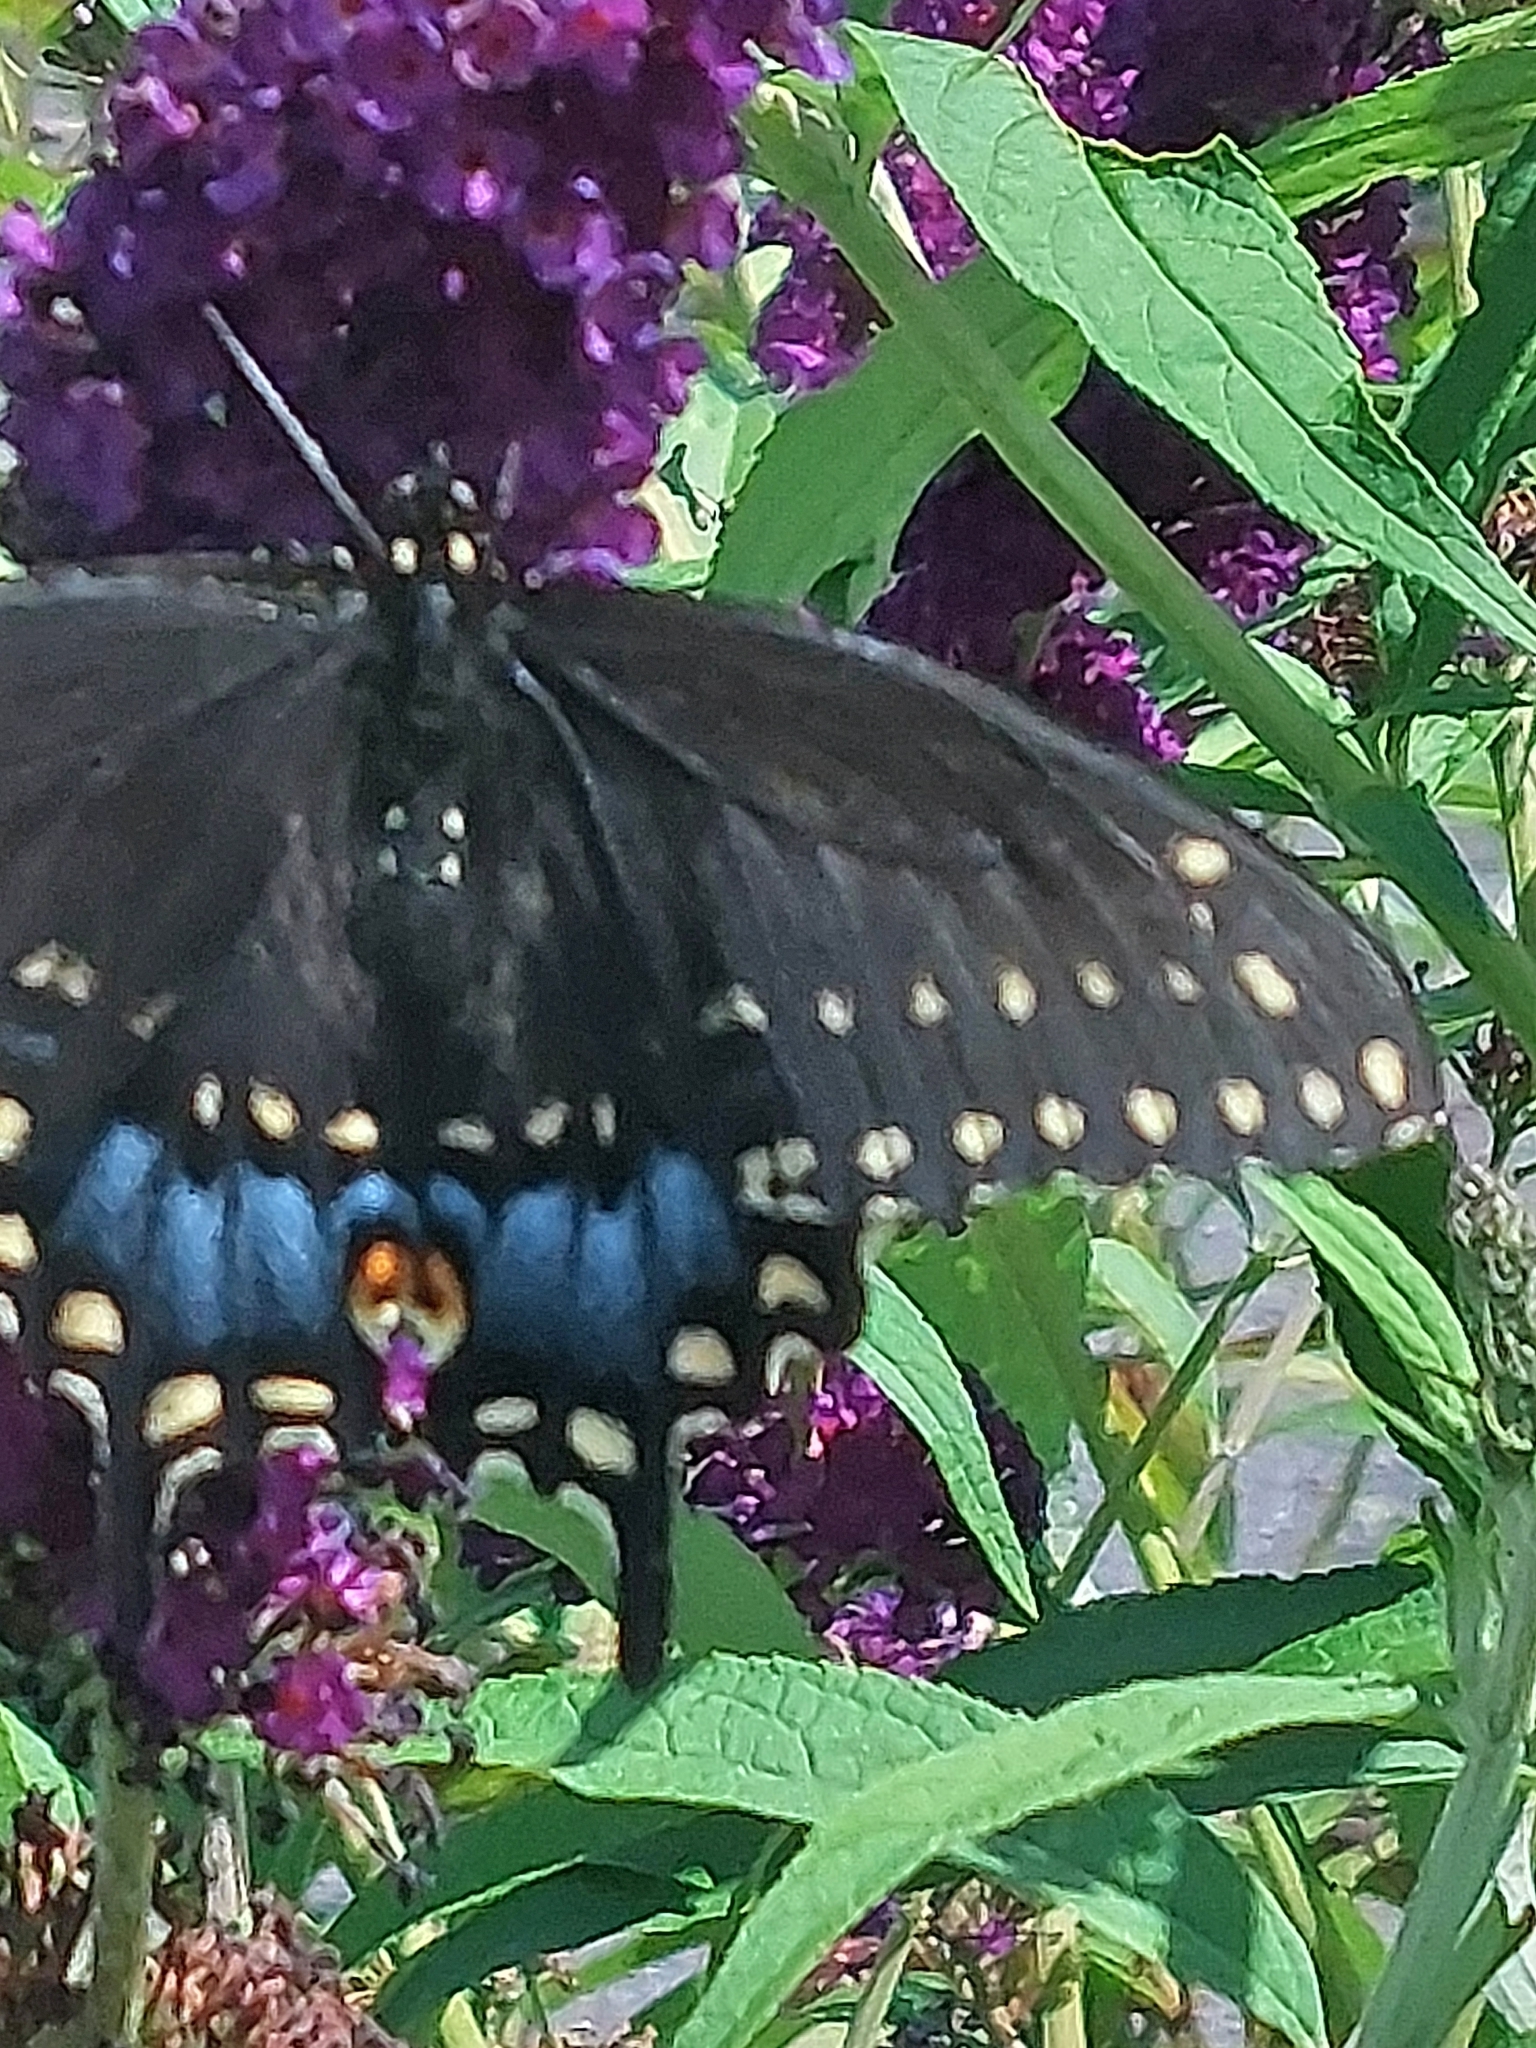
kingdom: Animalia
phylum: Arthropoda
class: Insecta
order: Lepidoptera
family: Papilionidae
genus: Papilio
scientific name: Papilio polyxenes
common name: Black swallowtail
